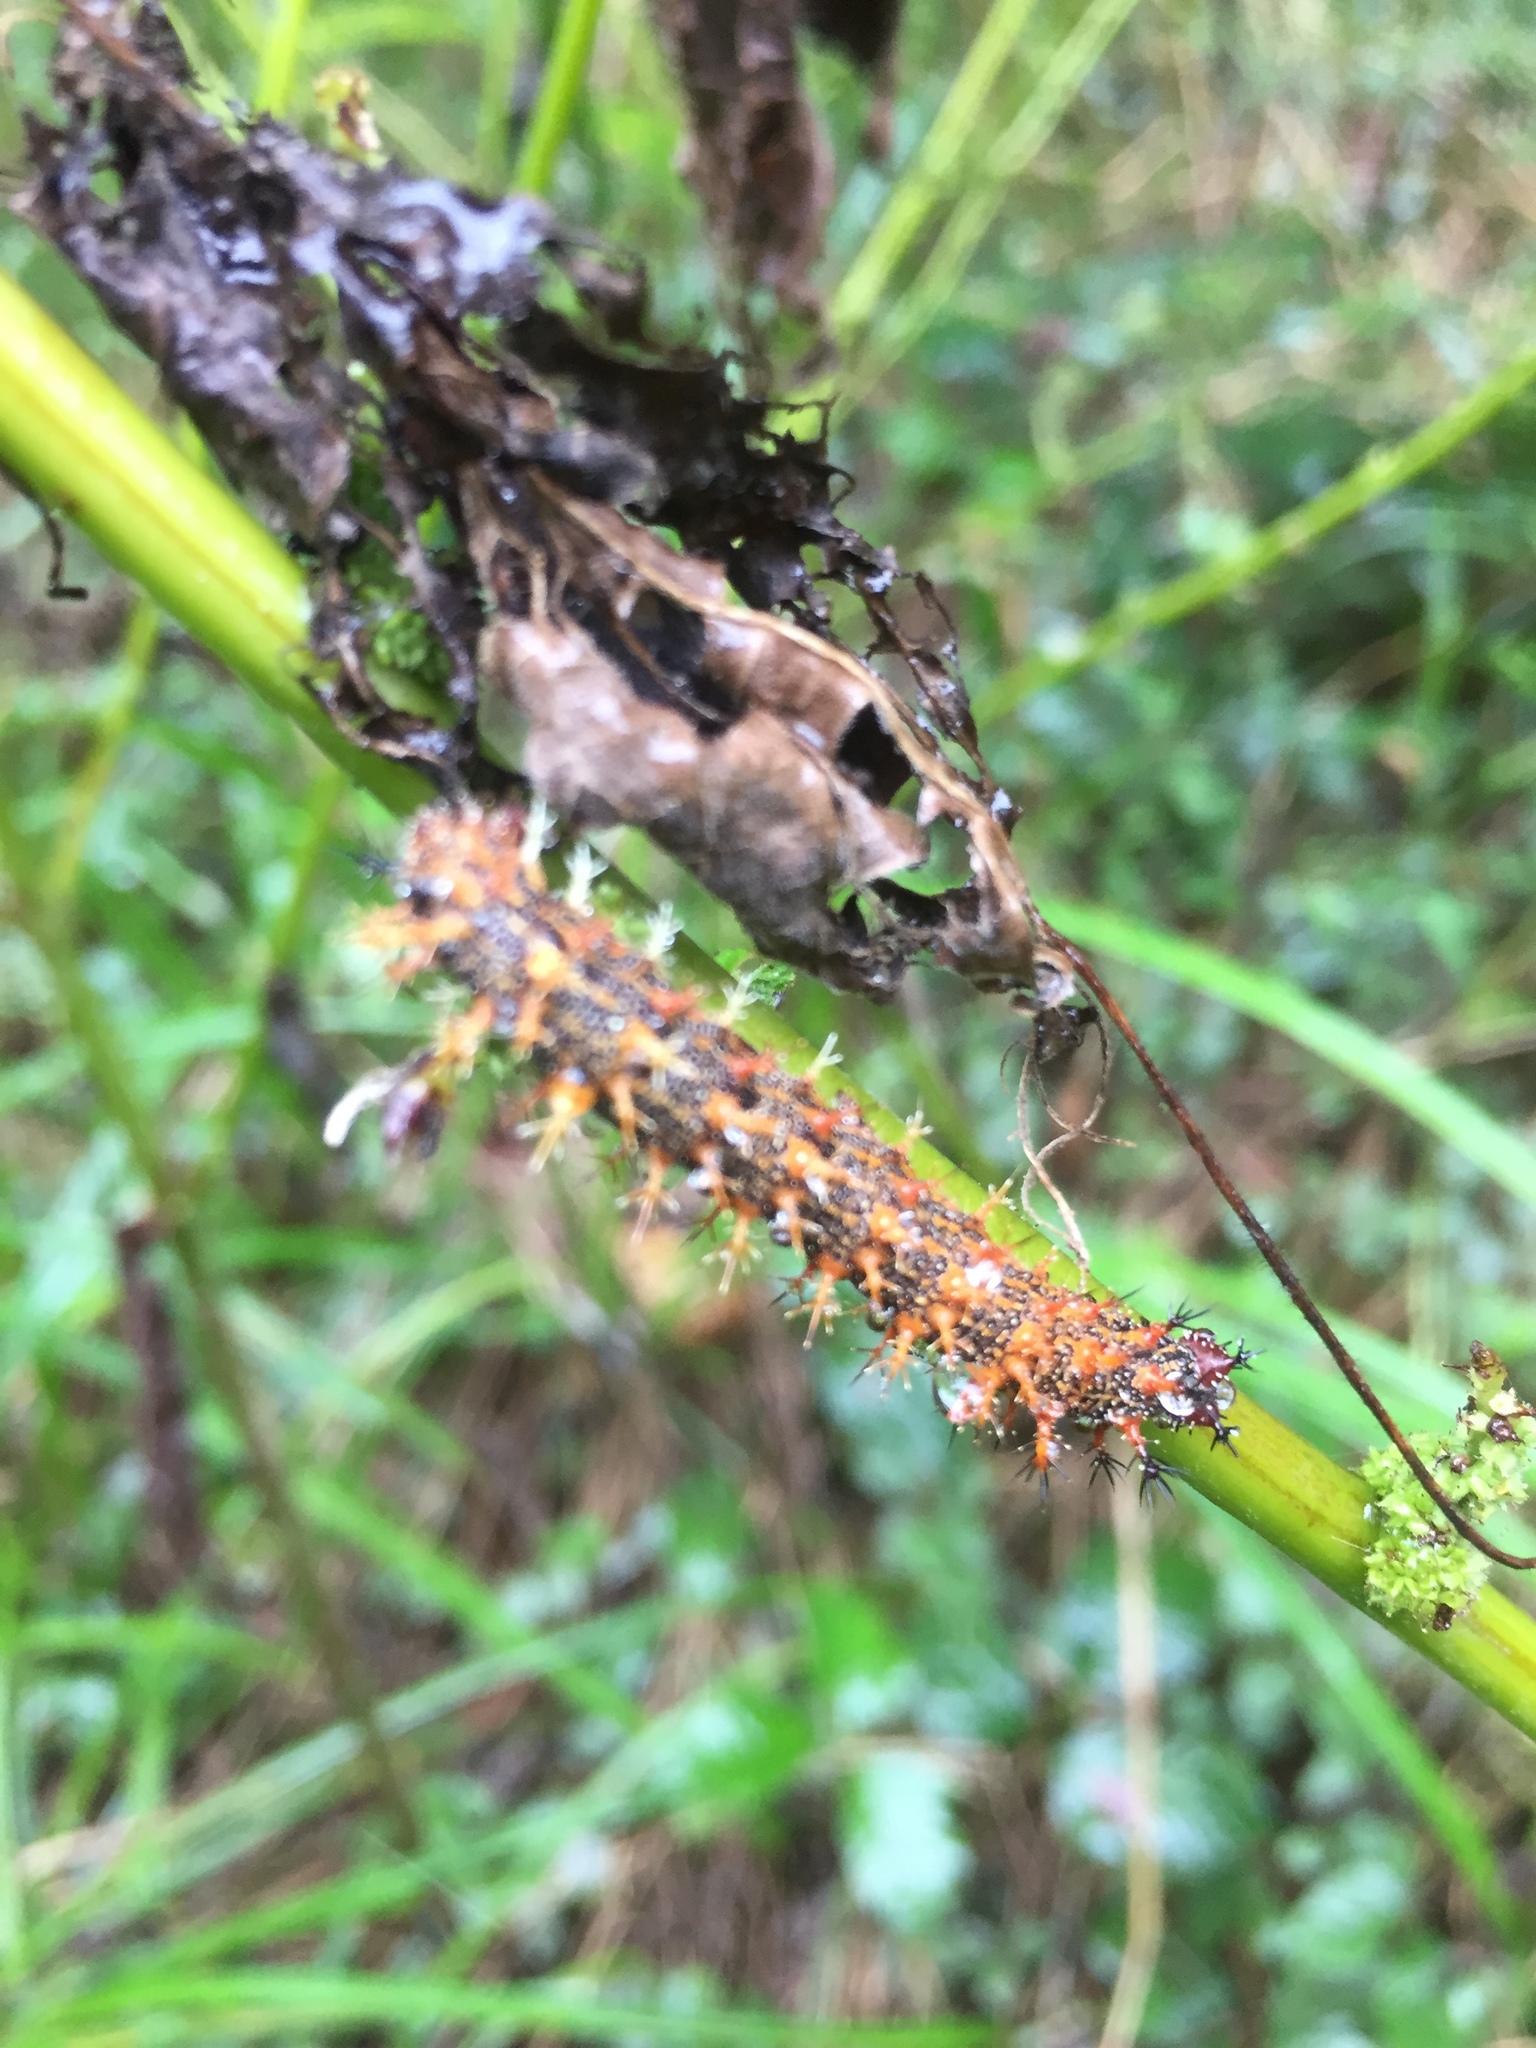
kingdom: Animalia
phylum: Arthropoda
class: Insecta
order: Lepidoptera
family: Nymphalidae
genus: Polygonia
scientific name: Polygonia interrogationis
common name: Question mark
